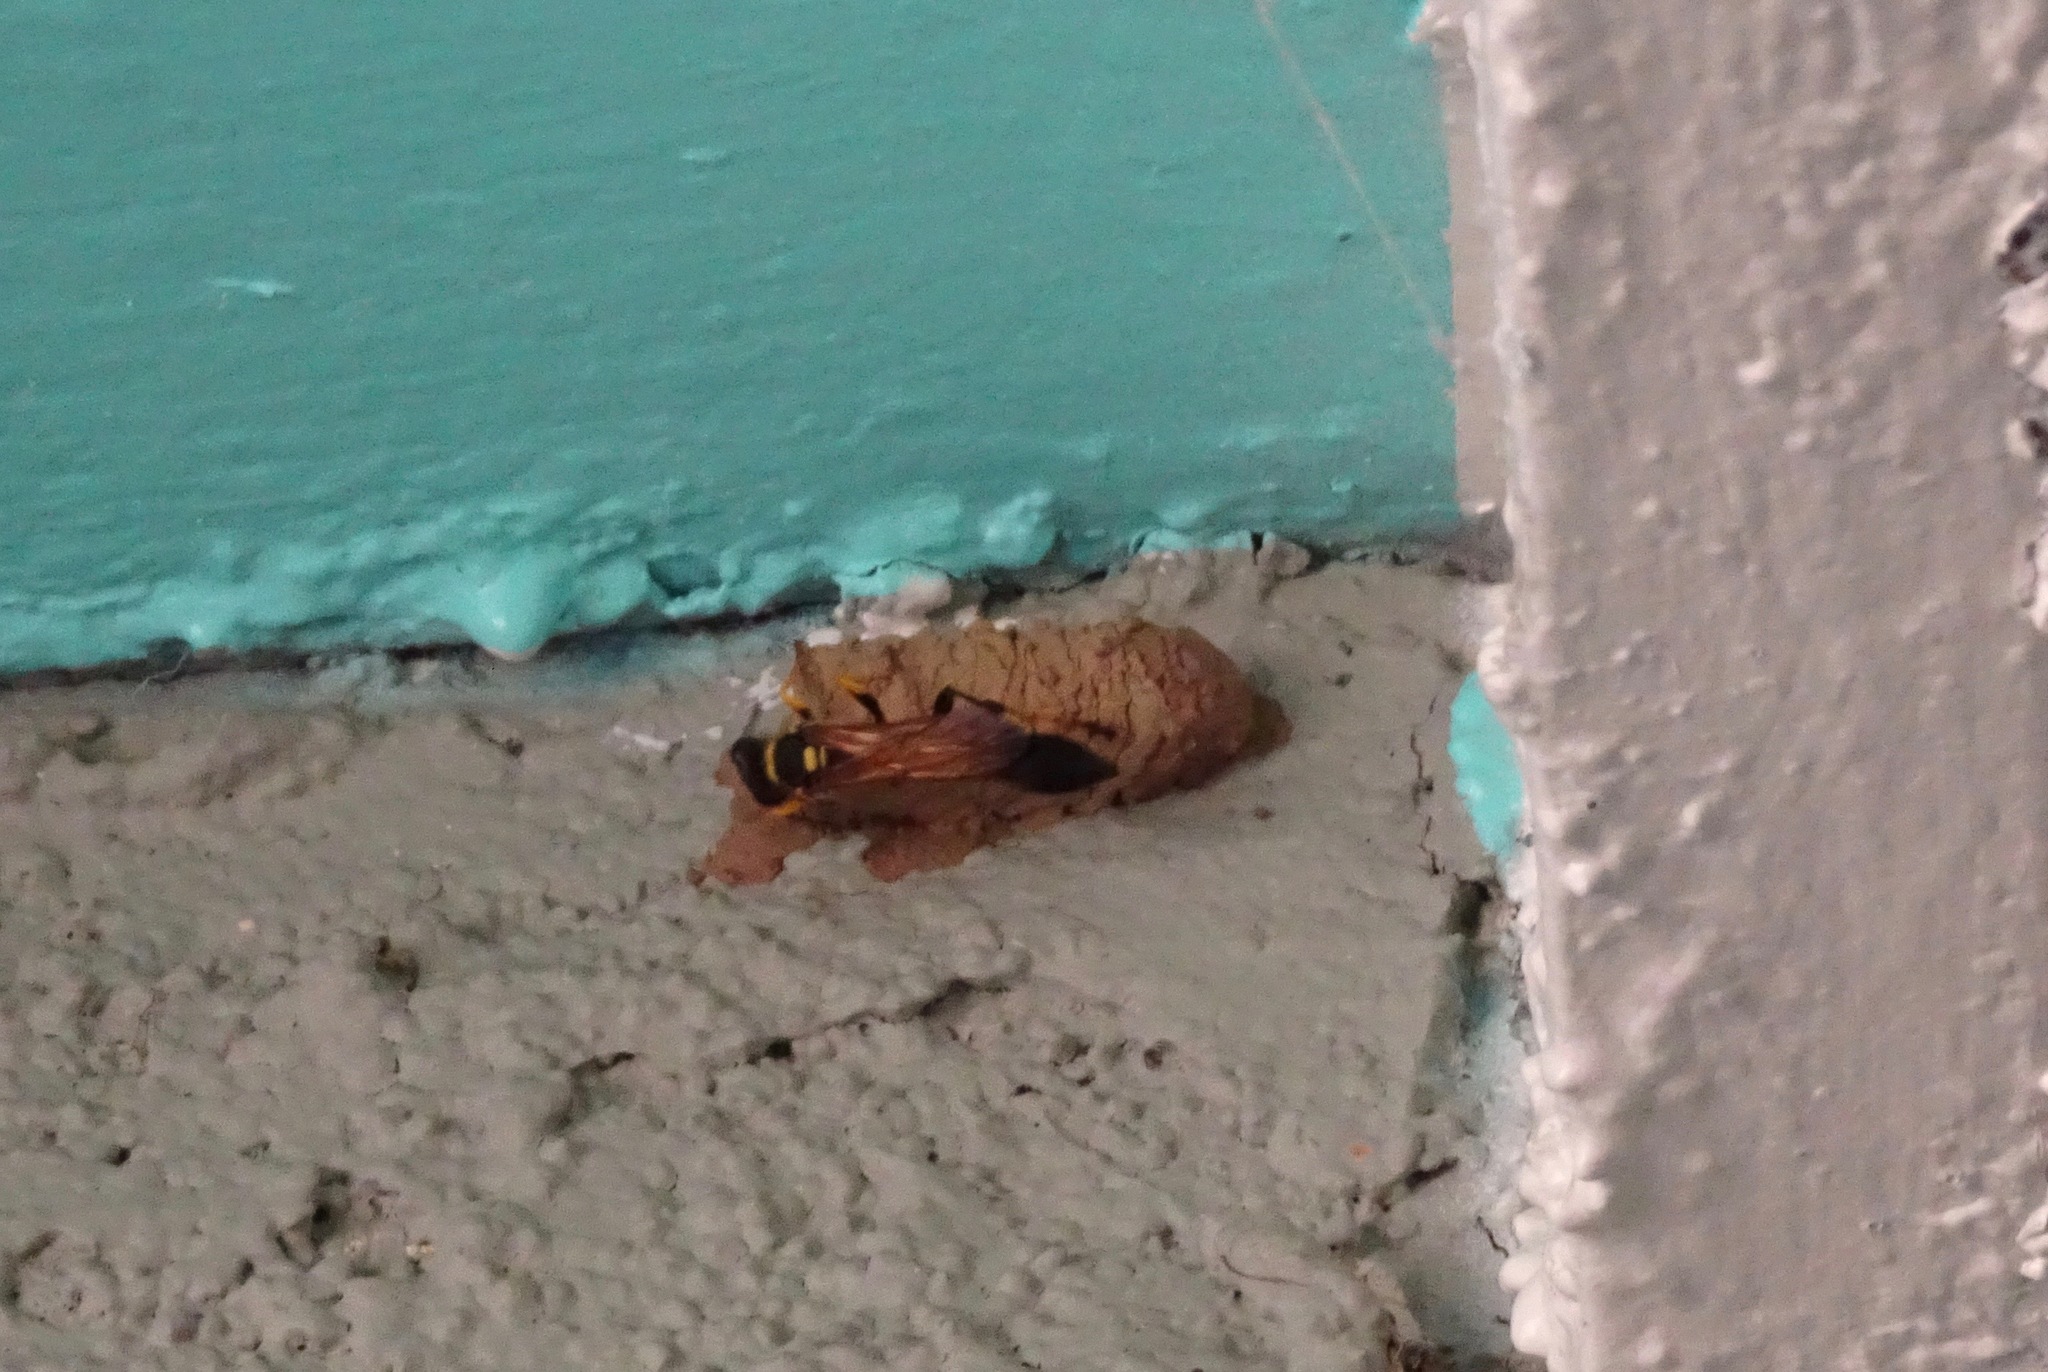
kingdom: Animalia
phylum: Arthropoda
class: Insecta
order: Hymenoptera
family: Sphecidae
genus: Sceliphron
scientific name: Sceliphron caementarium
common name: Mud dauber
